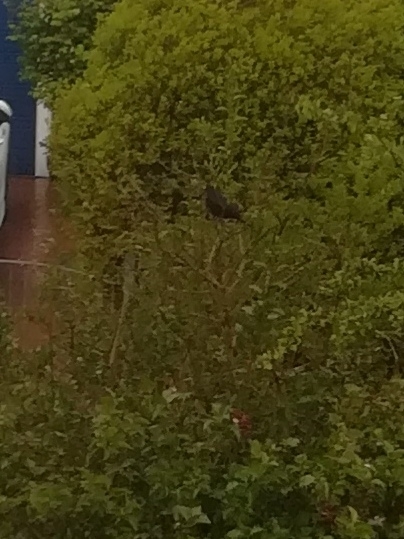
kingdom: Animalia
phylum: Chordata
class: Aves
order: Passeriformes
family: Turdidae
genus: Turdus
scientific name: Turdus merula
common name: Common blackbird
